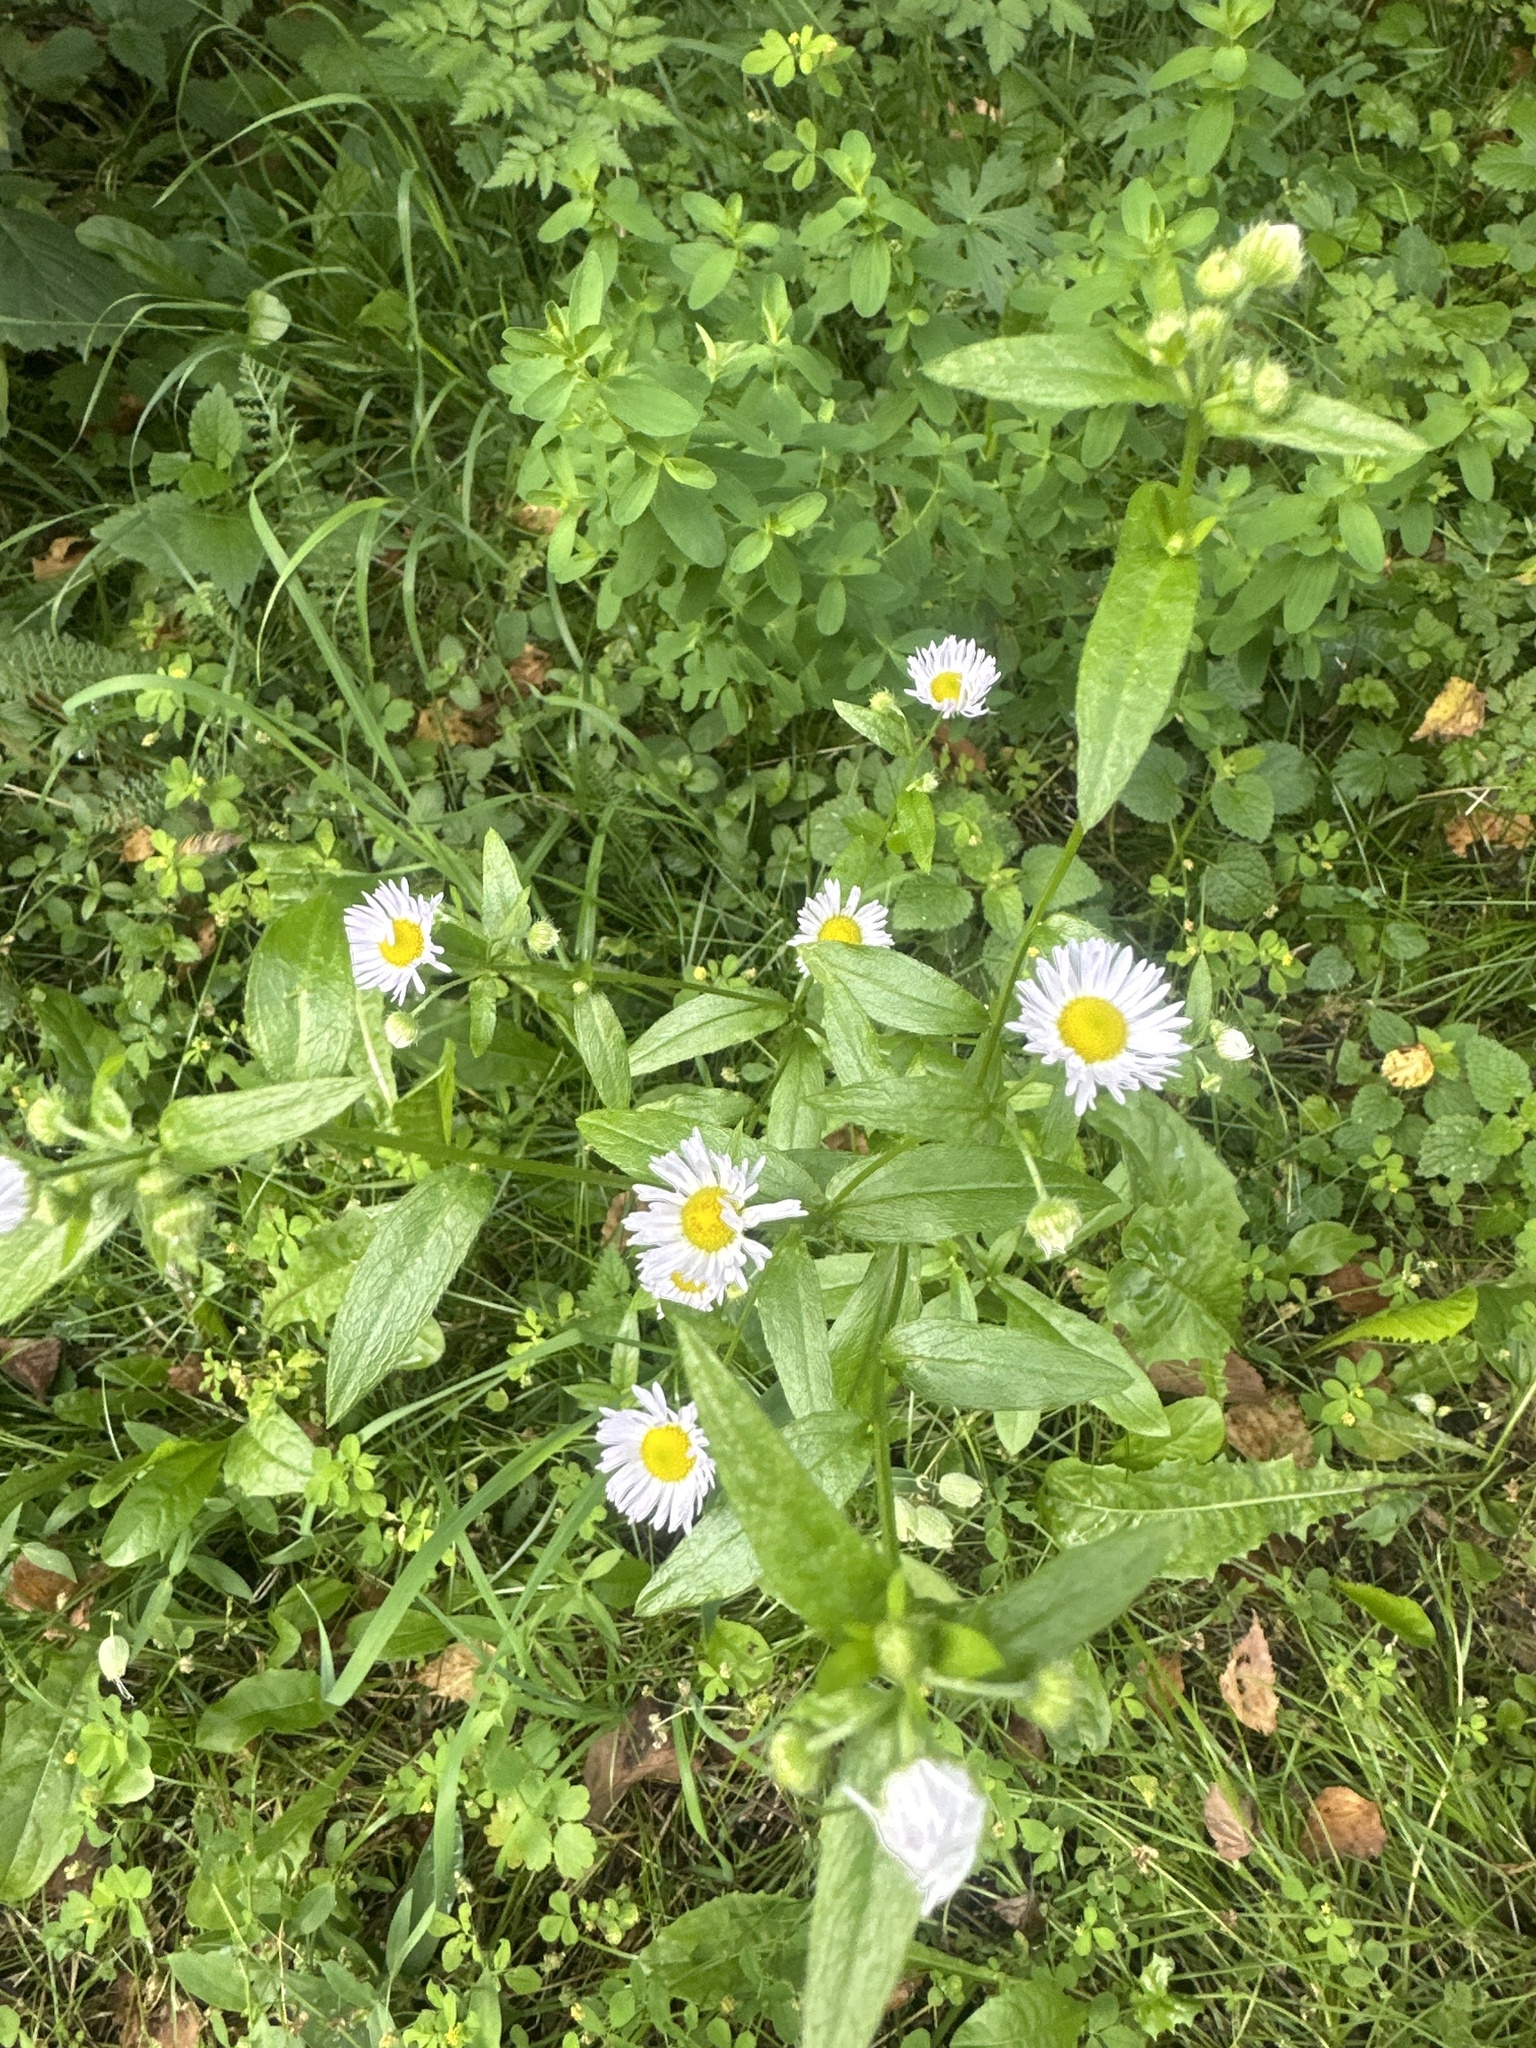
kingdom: Plantae
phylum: Tracheophyta
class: Magnoliopsida
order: Asterales
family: Asteraceae
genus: Erigeron
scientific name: Erigeron annuus
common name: Tall fleabane
